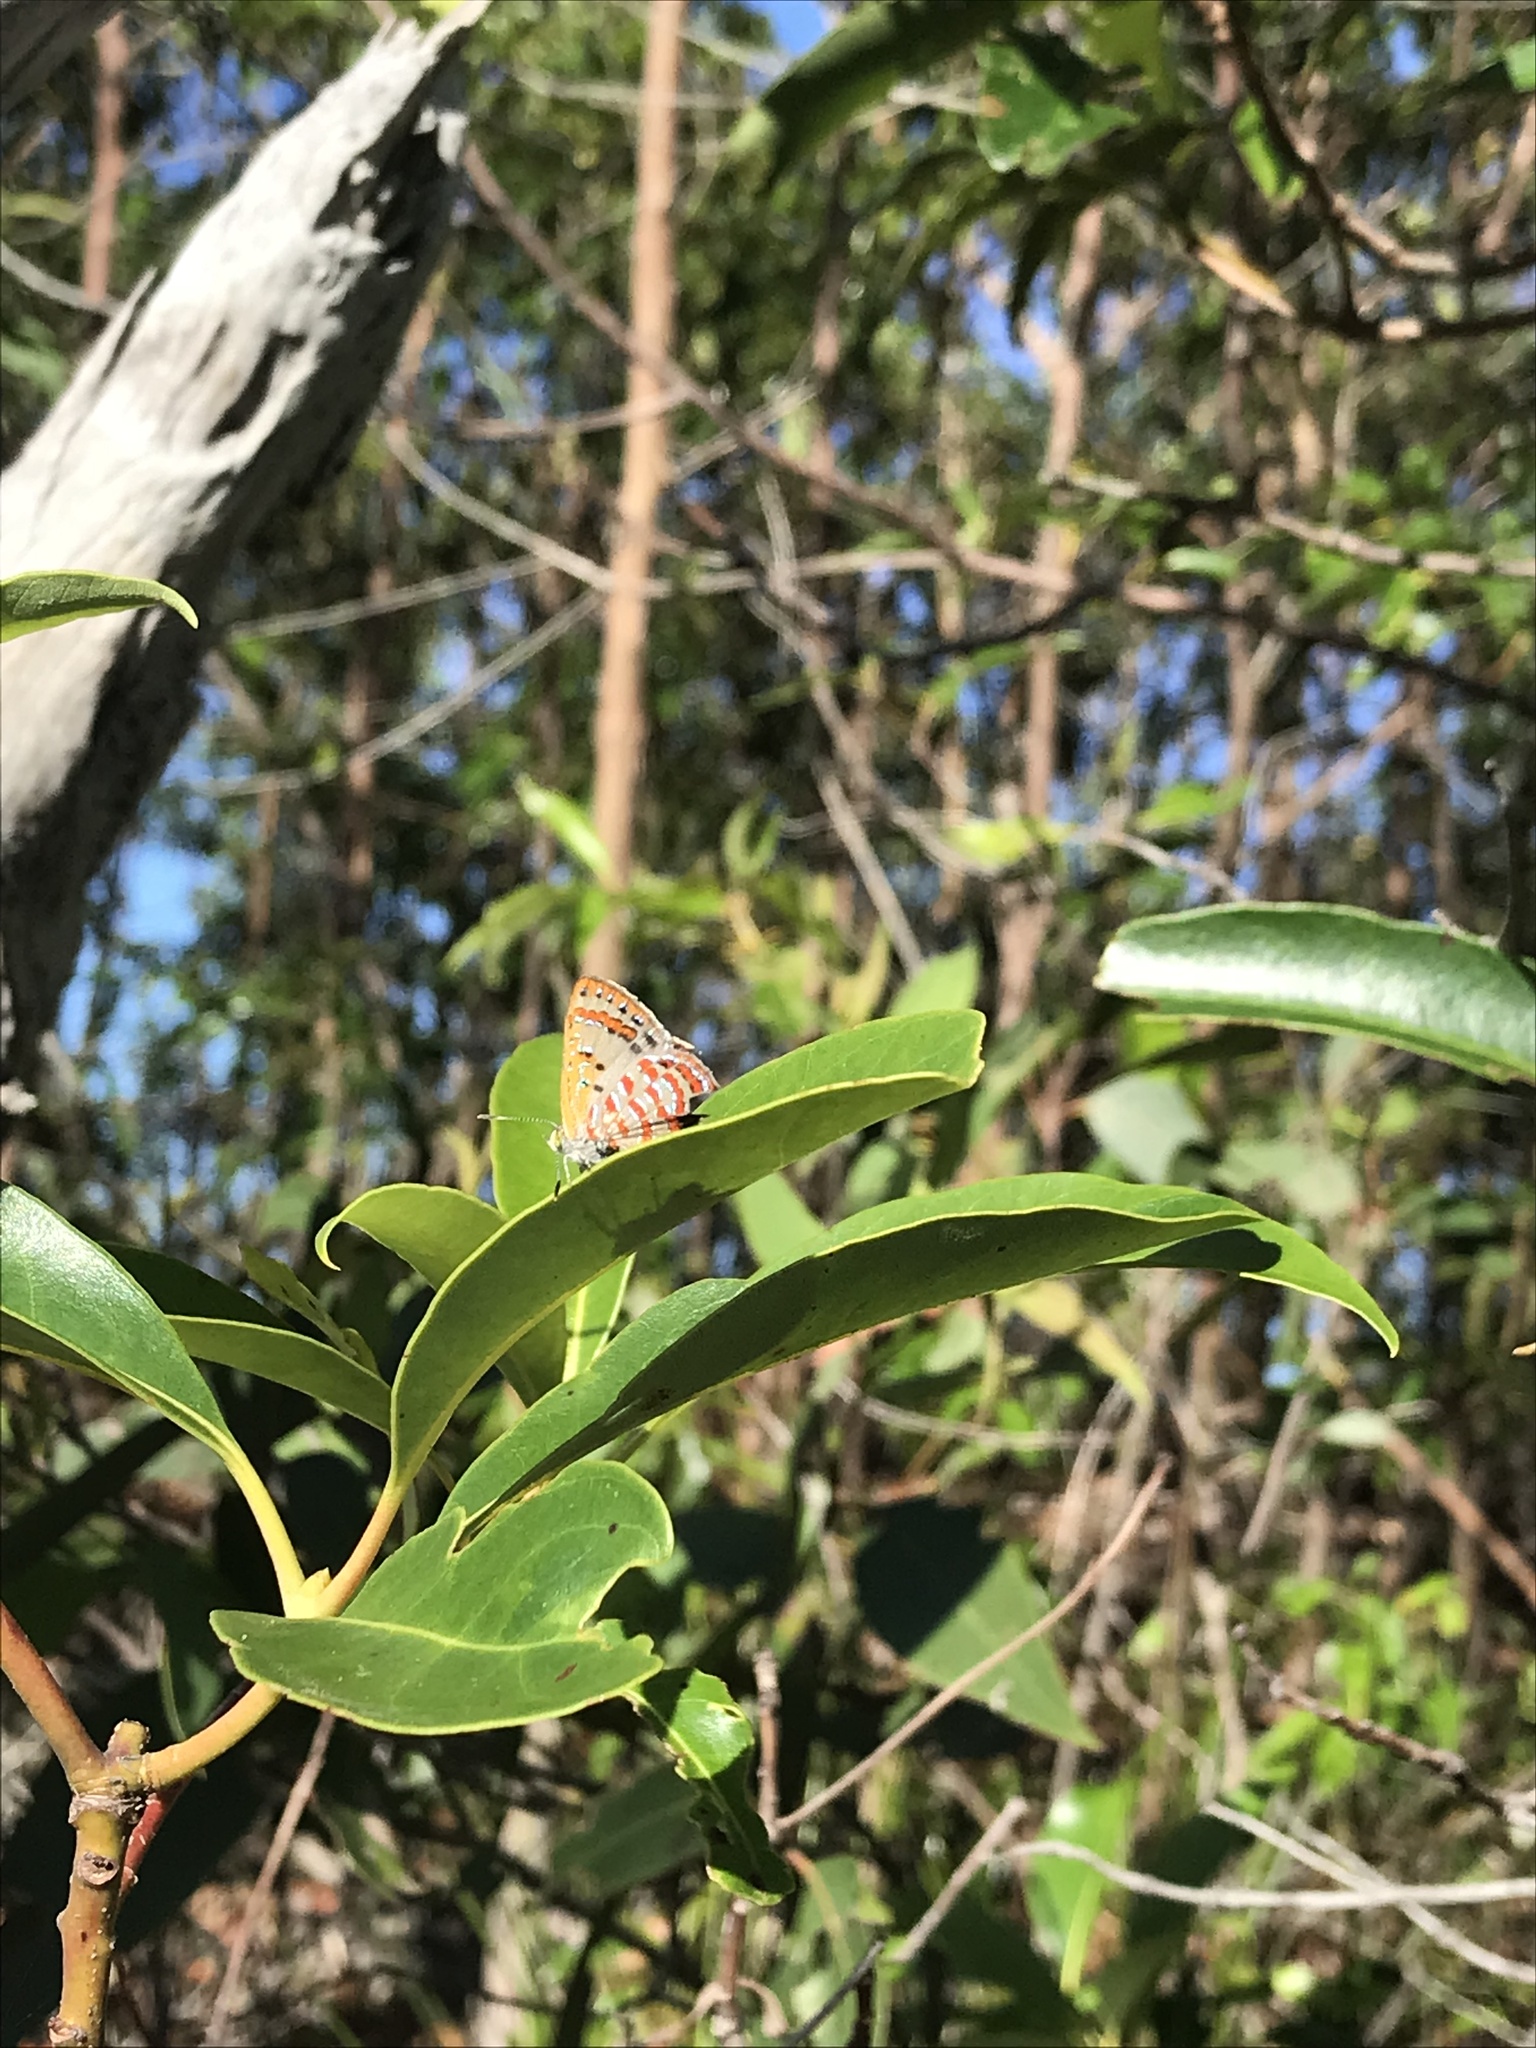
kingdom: Animalia
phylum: Arthropoda
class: Insecta
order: Lepidoptera
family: Lycaenidae
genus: Hypochrysops
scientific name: Hypochrysops ignita
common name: Fiery jewel
